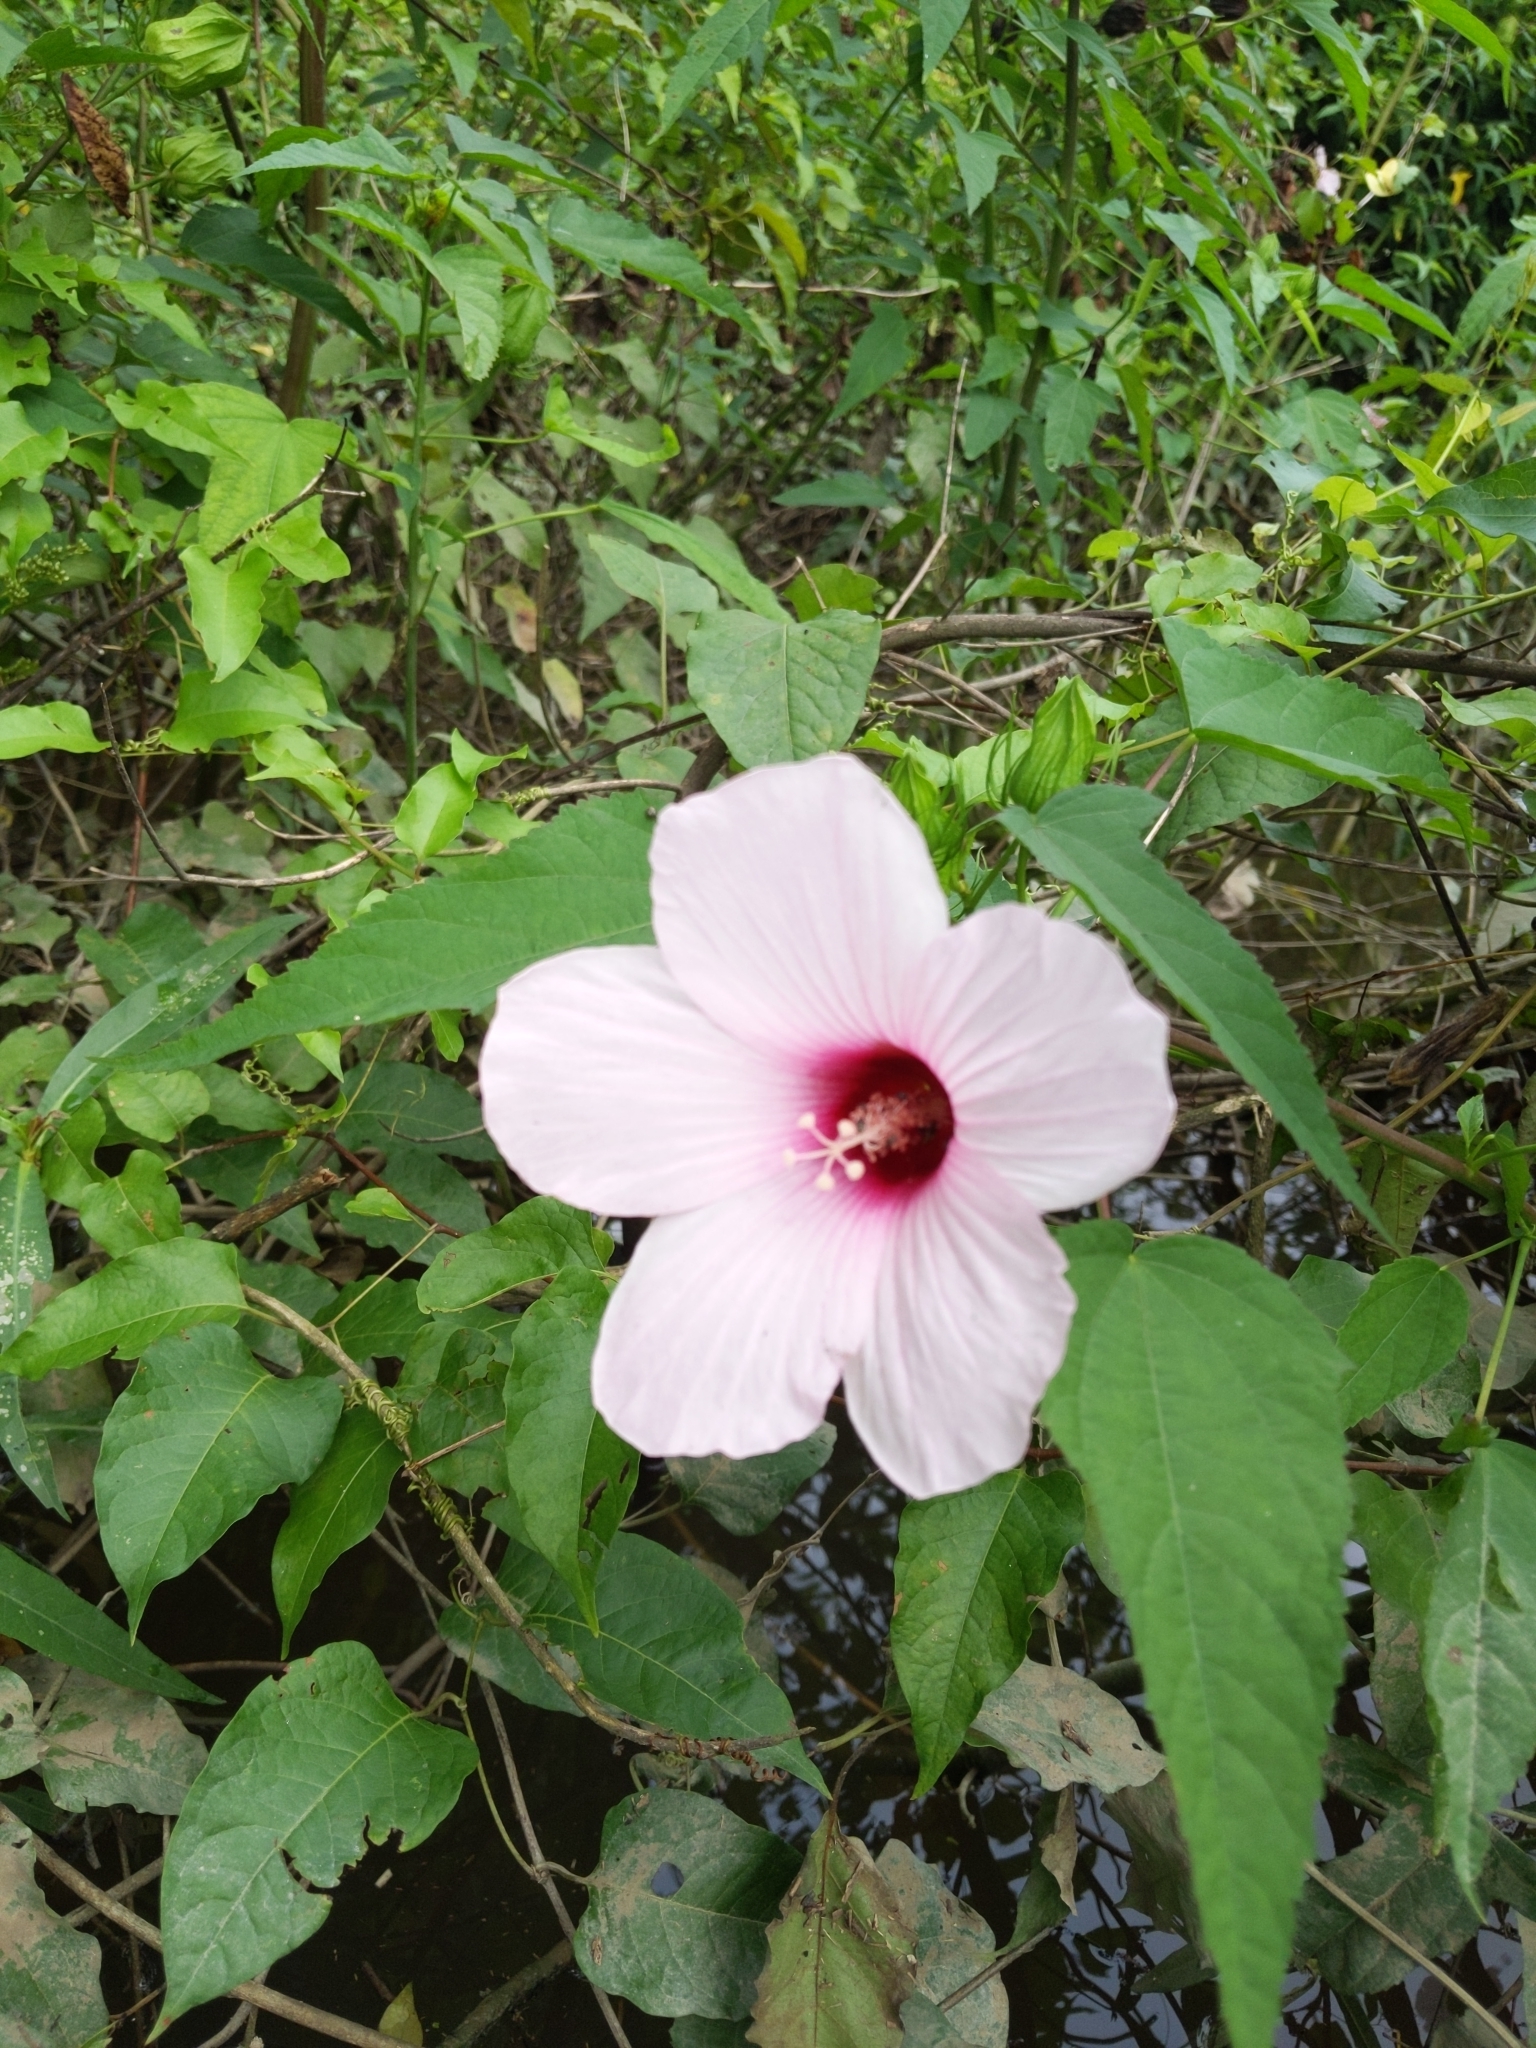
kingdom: Plantae
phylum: Tracheophyta
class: Magnoliopsida
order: Malvales
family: Malvaceae
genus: Hibiscus
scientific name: Hibiscus laevis
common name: Scarlet rose-mallow
